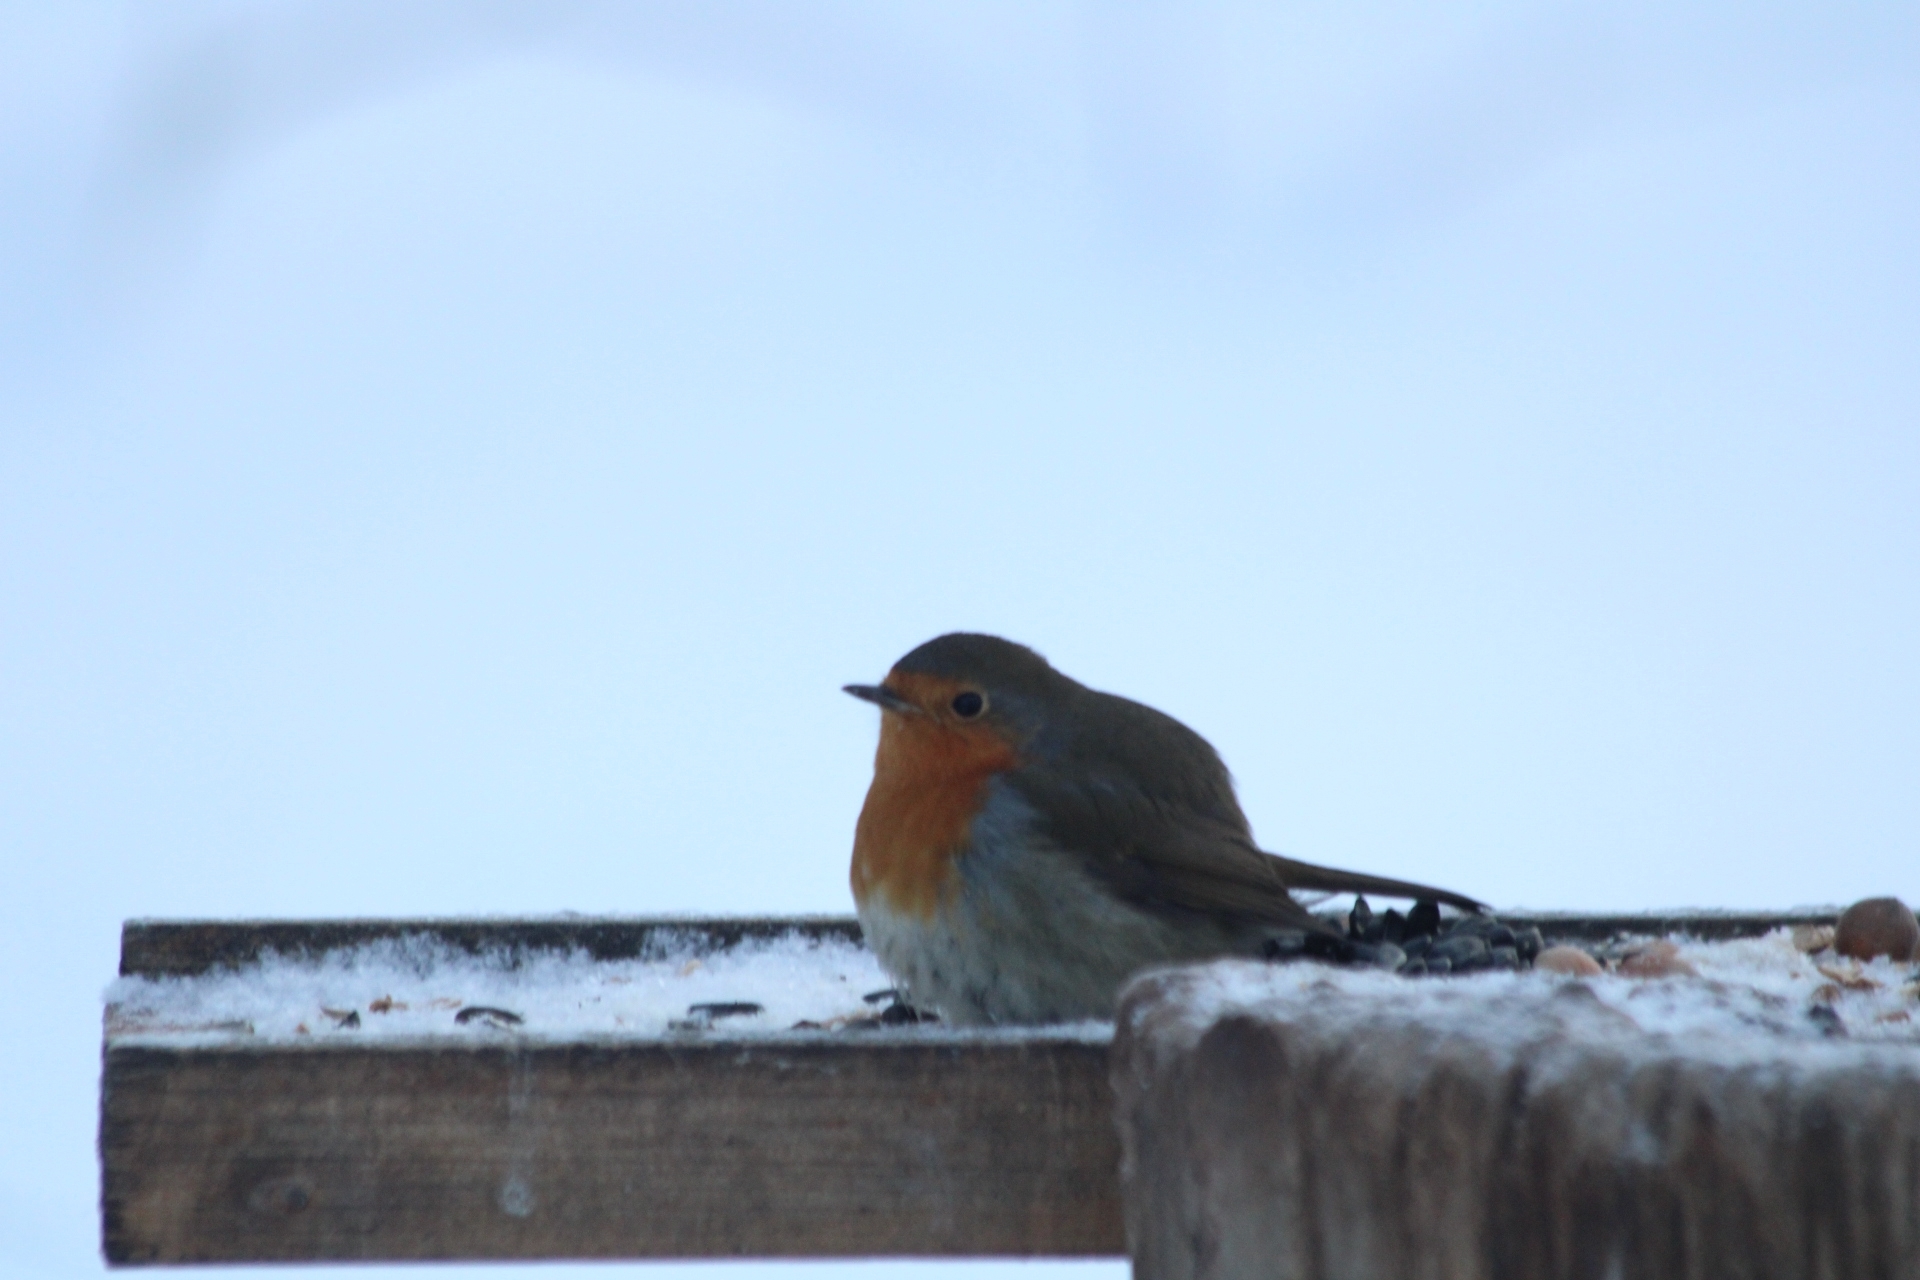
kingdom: Animalia
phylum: Chordata
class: Aves
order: Passeriformes
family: Muscicapidae
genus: Erithacus
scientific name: Erithacus rubecula
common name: European robin
